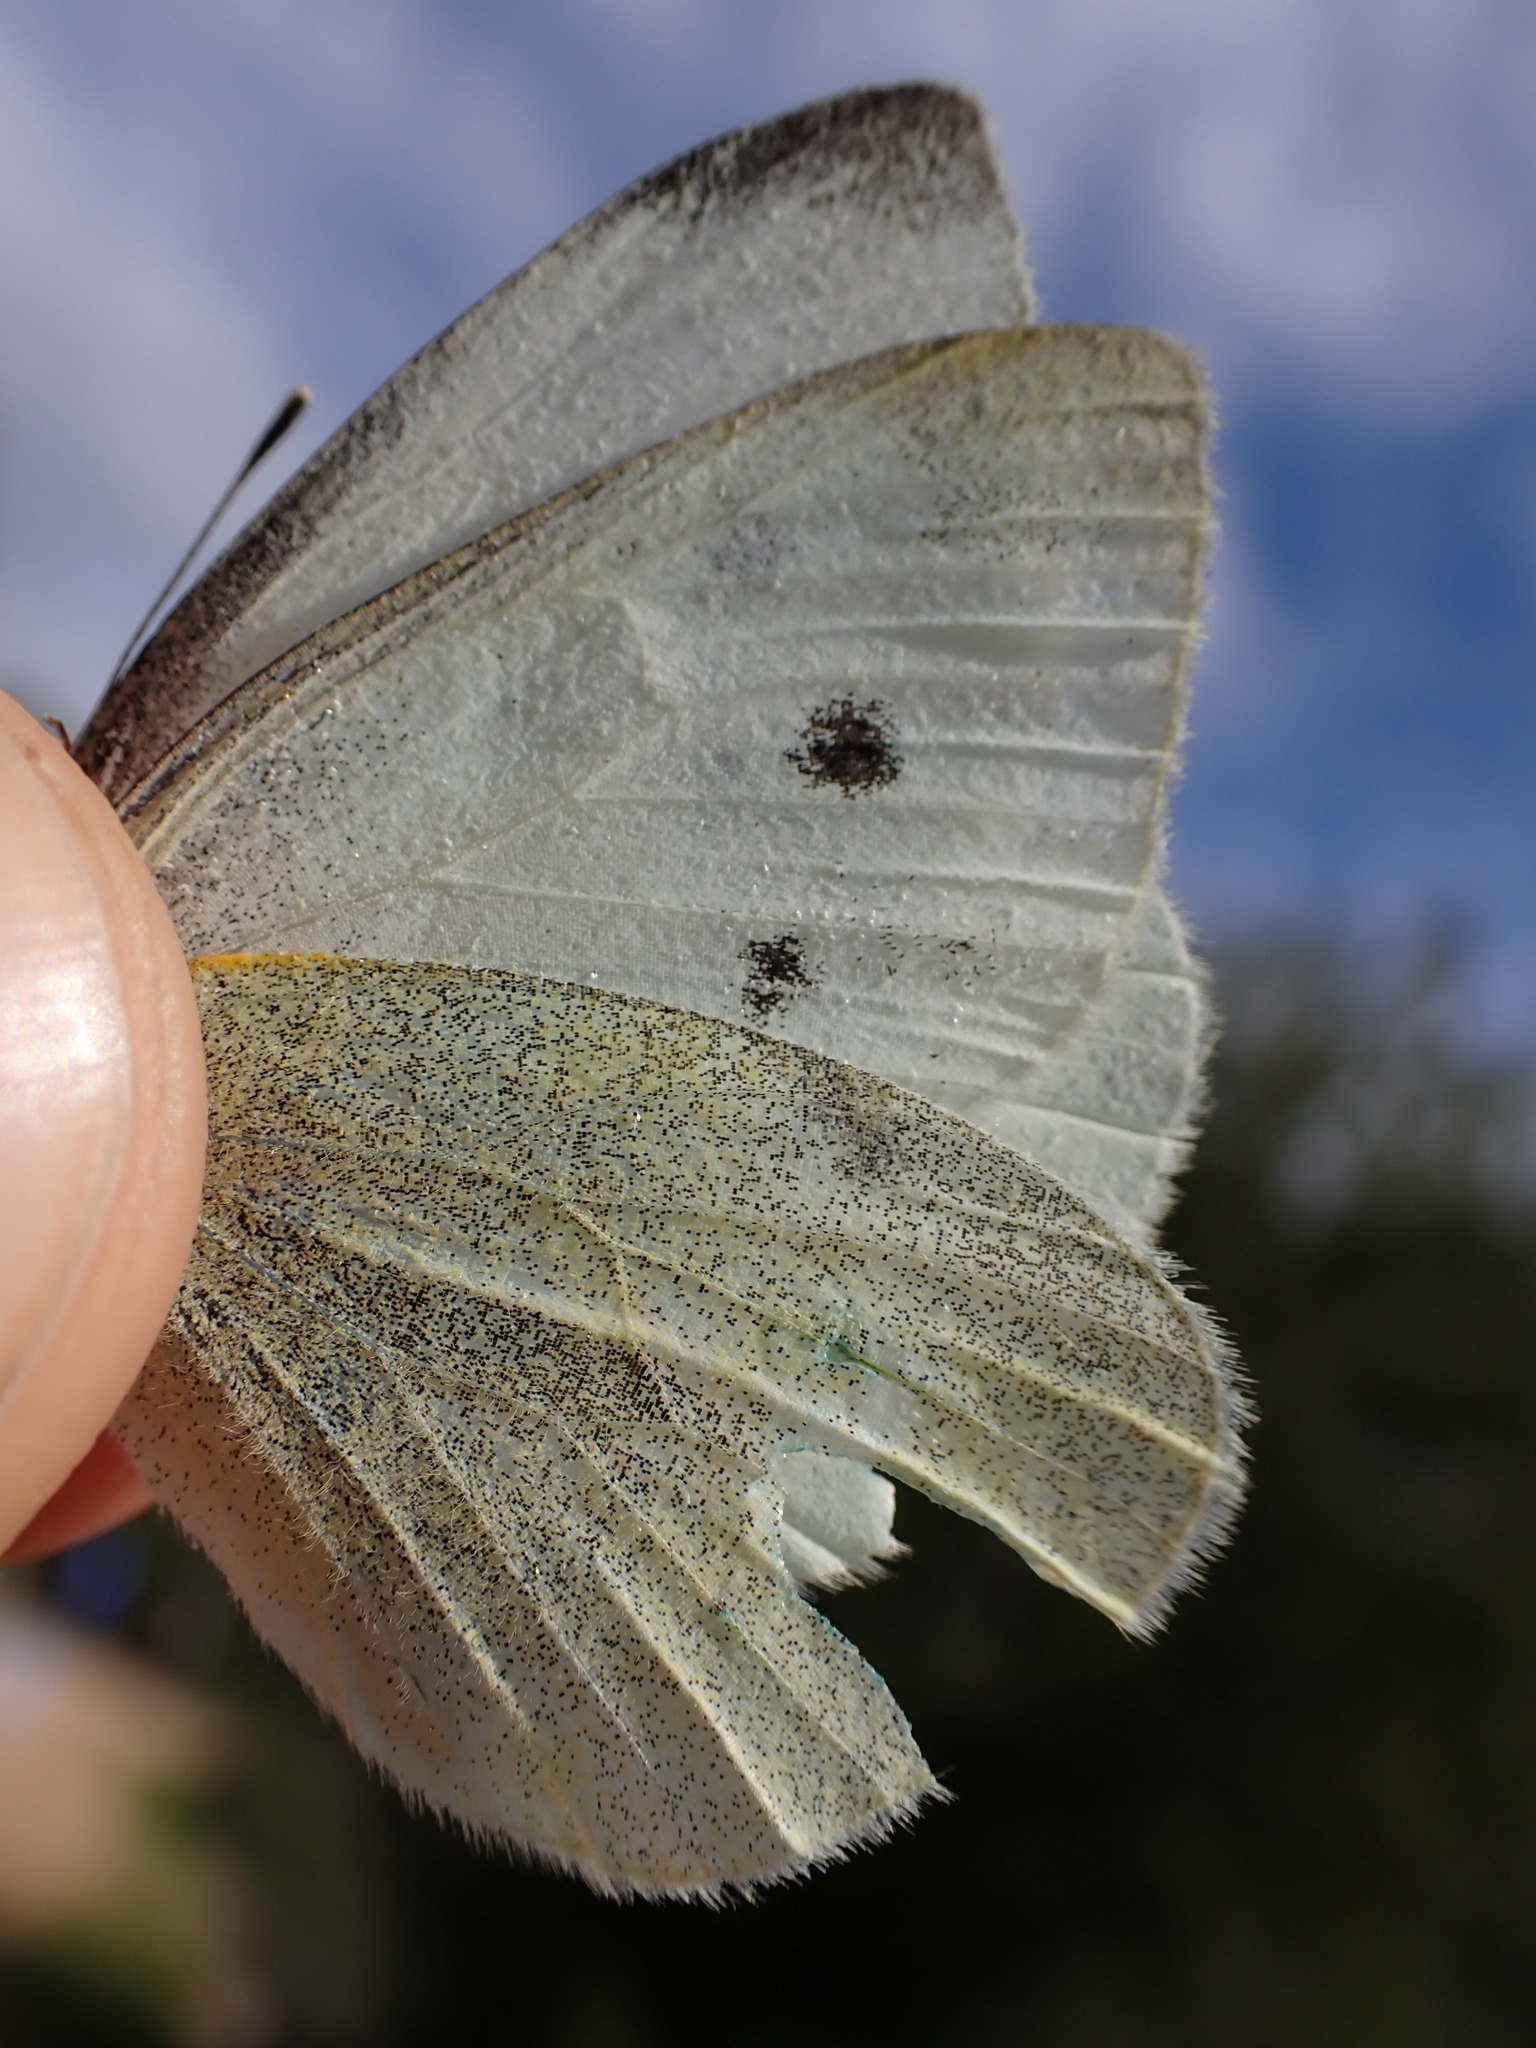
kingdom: Animalia
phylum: Arthropoda
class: Insecta
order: Lepidoptera
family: Pieridae
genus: Pieris
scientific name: Pieris rapae
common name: Small white
